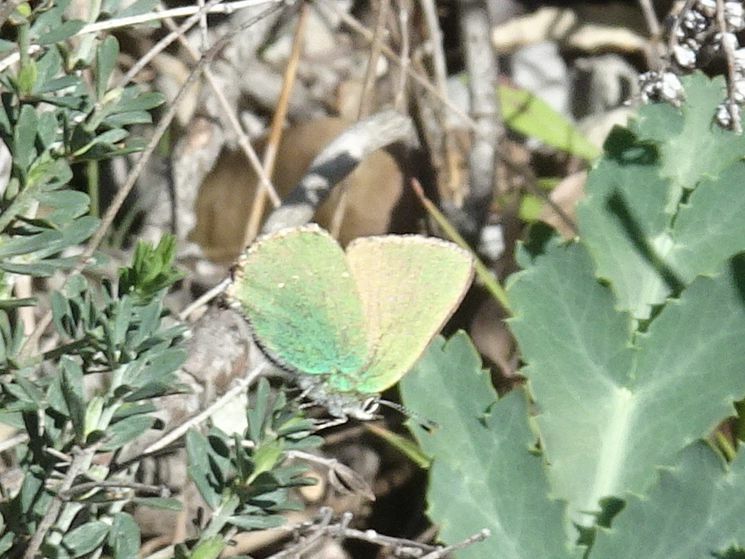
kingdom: Animalia
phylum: Arthropoda
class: Insecta
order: Lepidoptera
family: Lycaenidae
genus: Callophrys
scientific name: Callophrys rubi
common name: Green hairstreak
